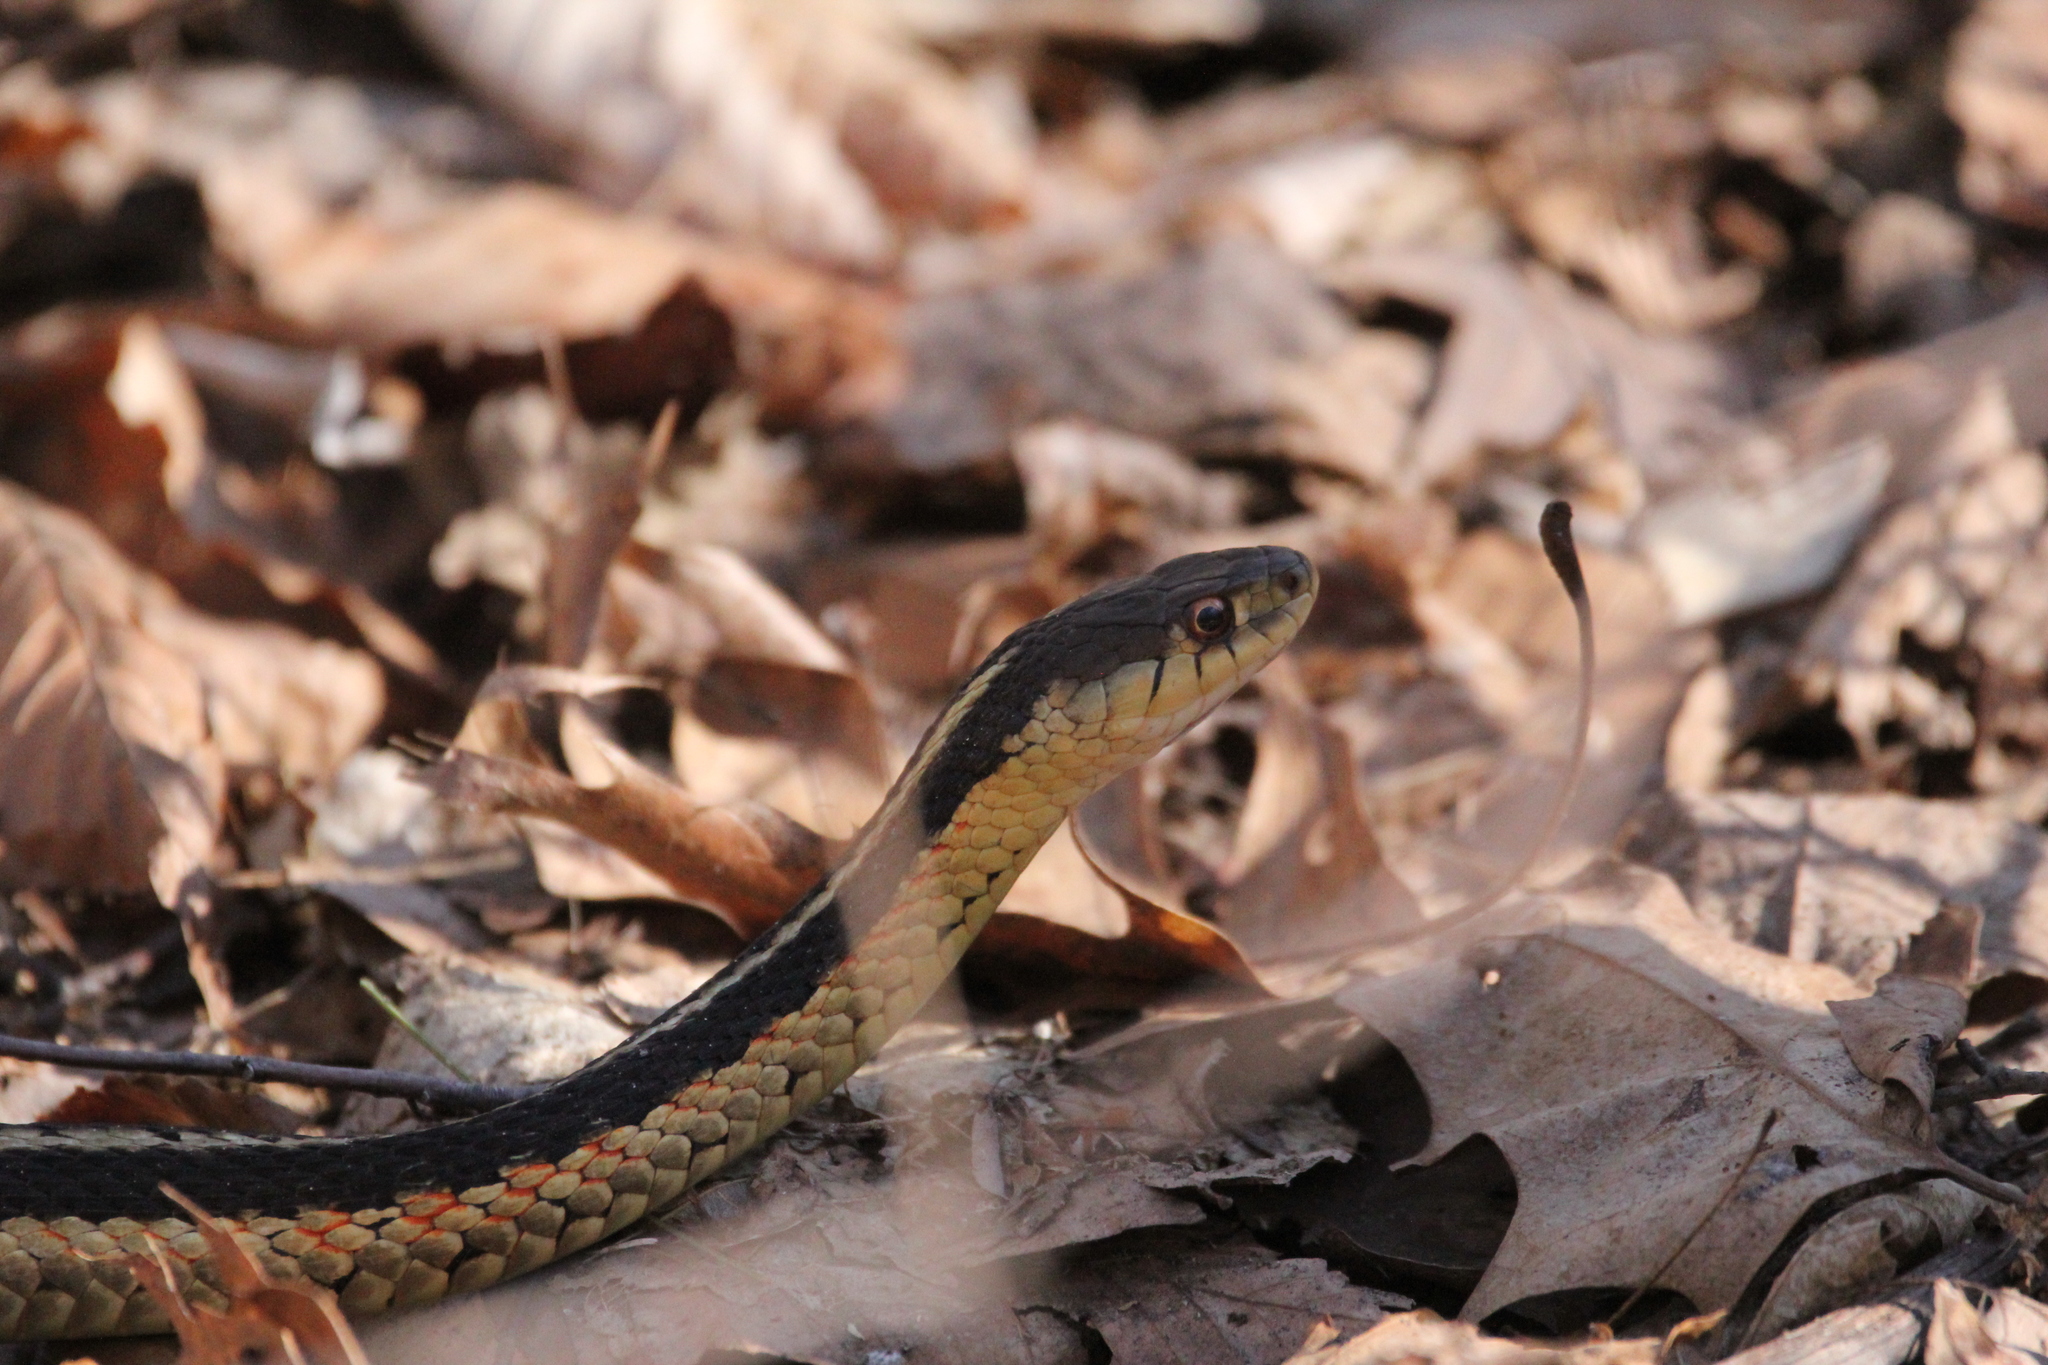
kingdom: Animalia
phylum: Chordata
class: Squamata
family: Colubridae
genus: Thamnophis
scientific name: Thamnophis sirtalis
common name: Common garter snake
